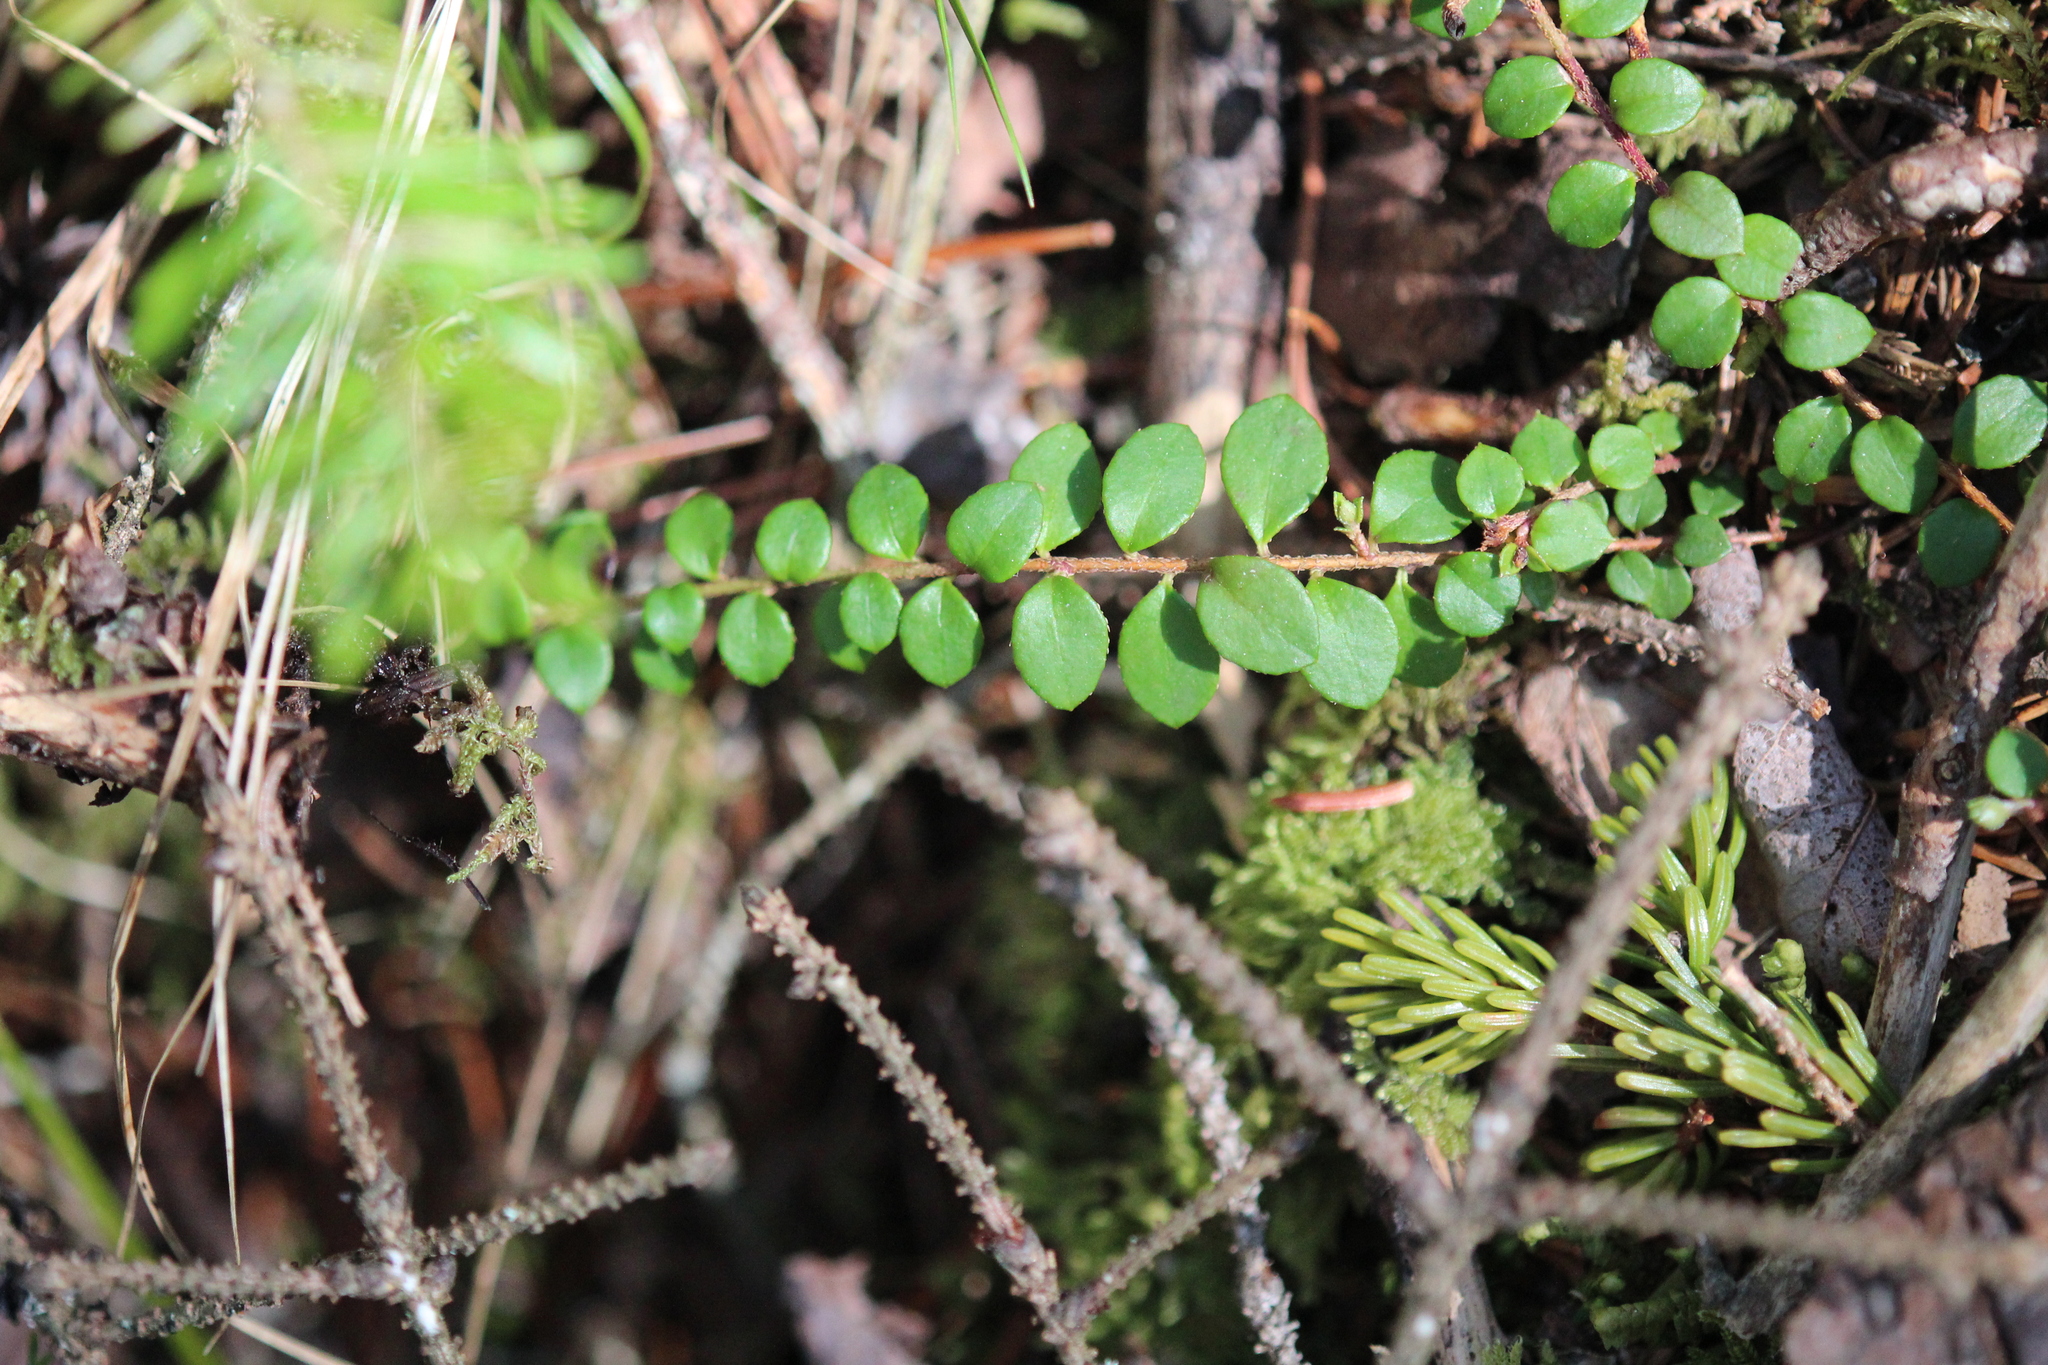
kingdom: Plantae
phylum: Tracheophyta
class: Magnoliopsida
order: Ericales
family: Ericaceae
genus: Gaultheria
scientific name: Gaultheria hispidula
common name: Cancer wintergreen
